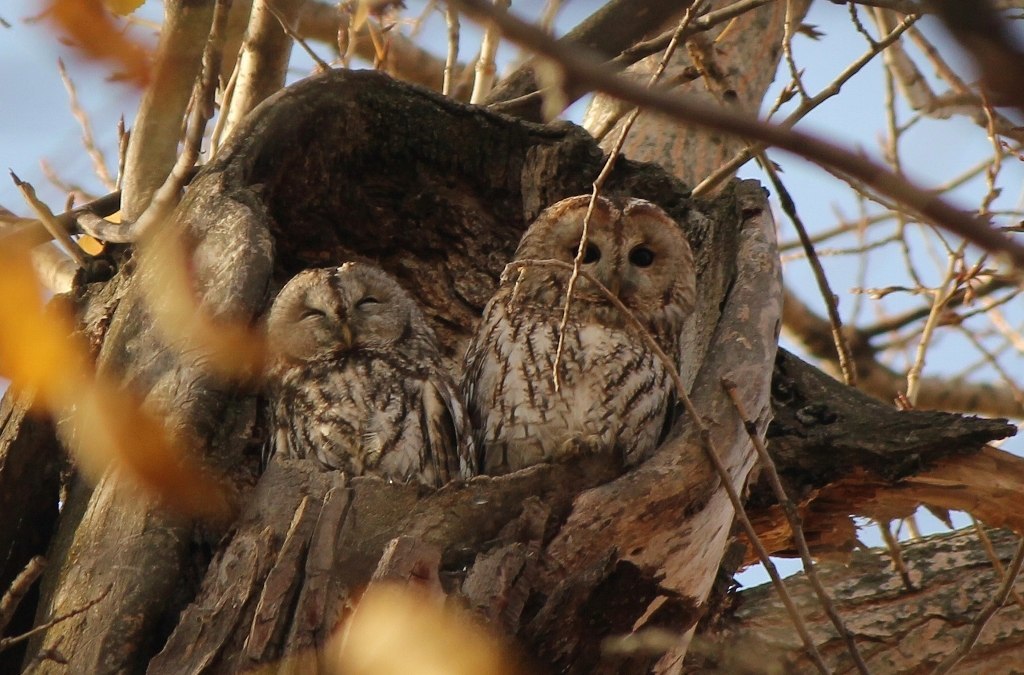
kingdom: Animalia
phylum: Chordata
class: Aves
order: Strigiformes
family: Strigidae
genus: Strix
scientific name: Strix aluco
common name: Tawny owl
